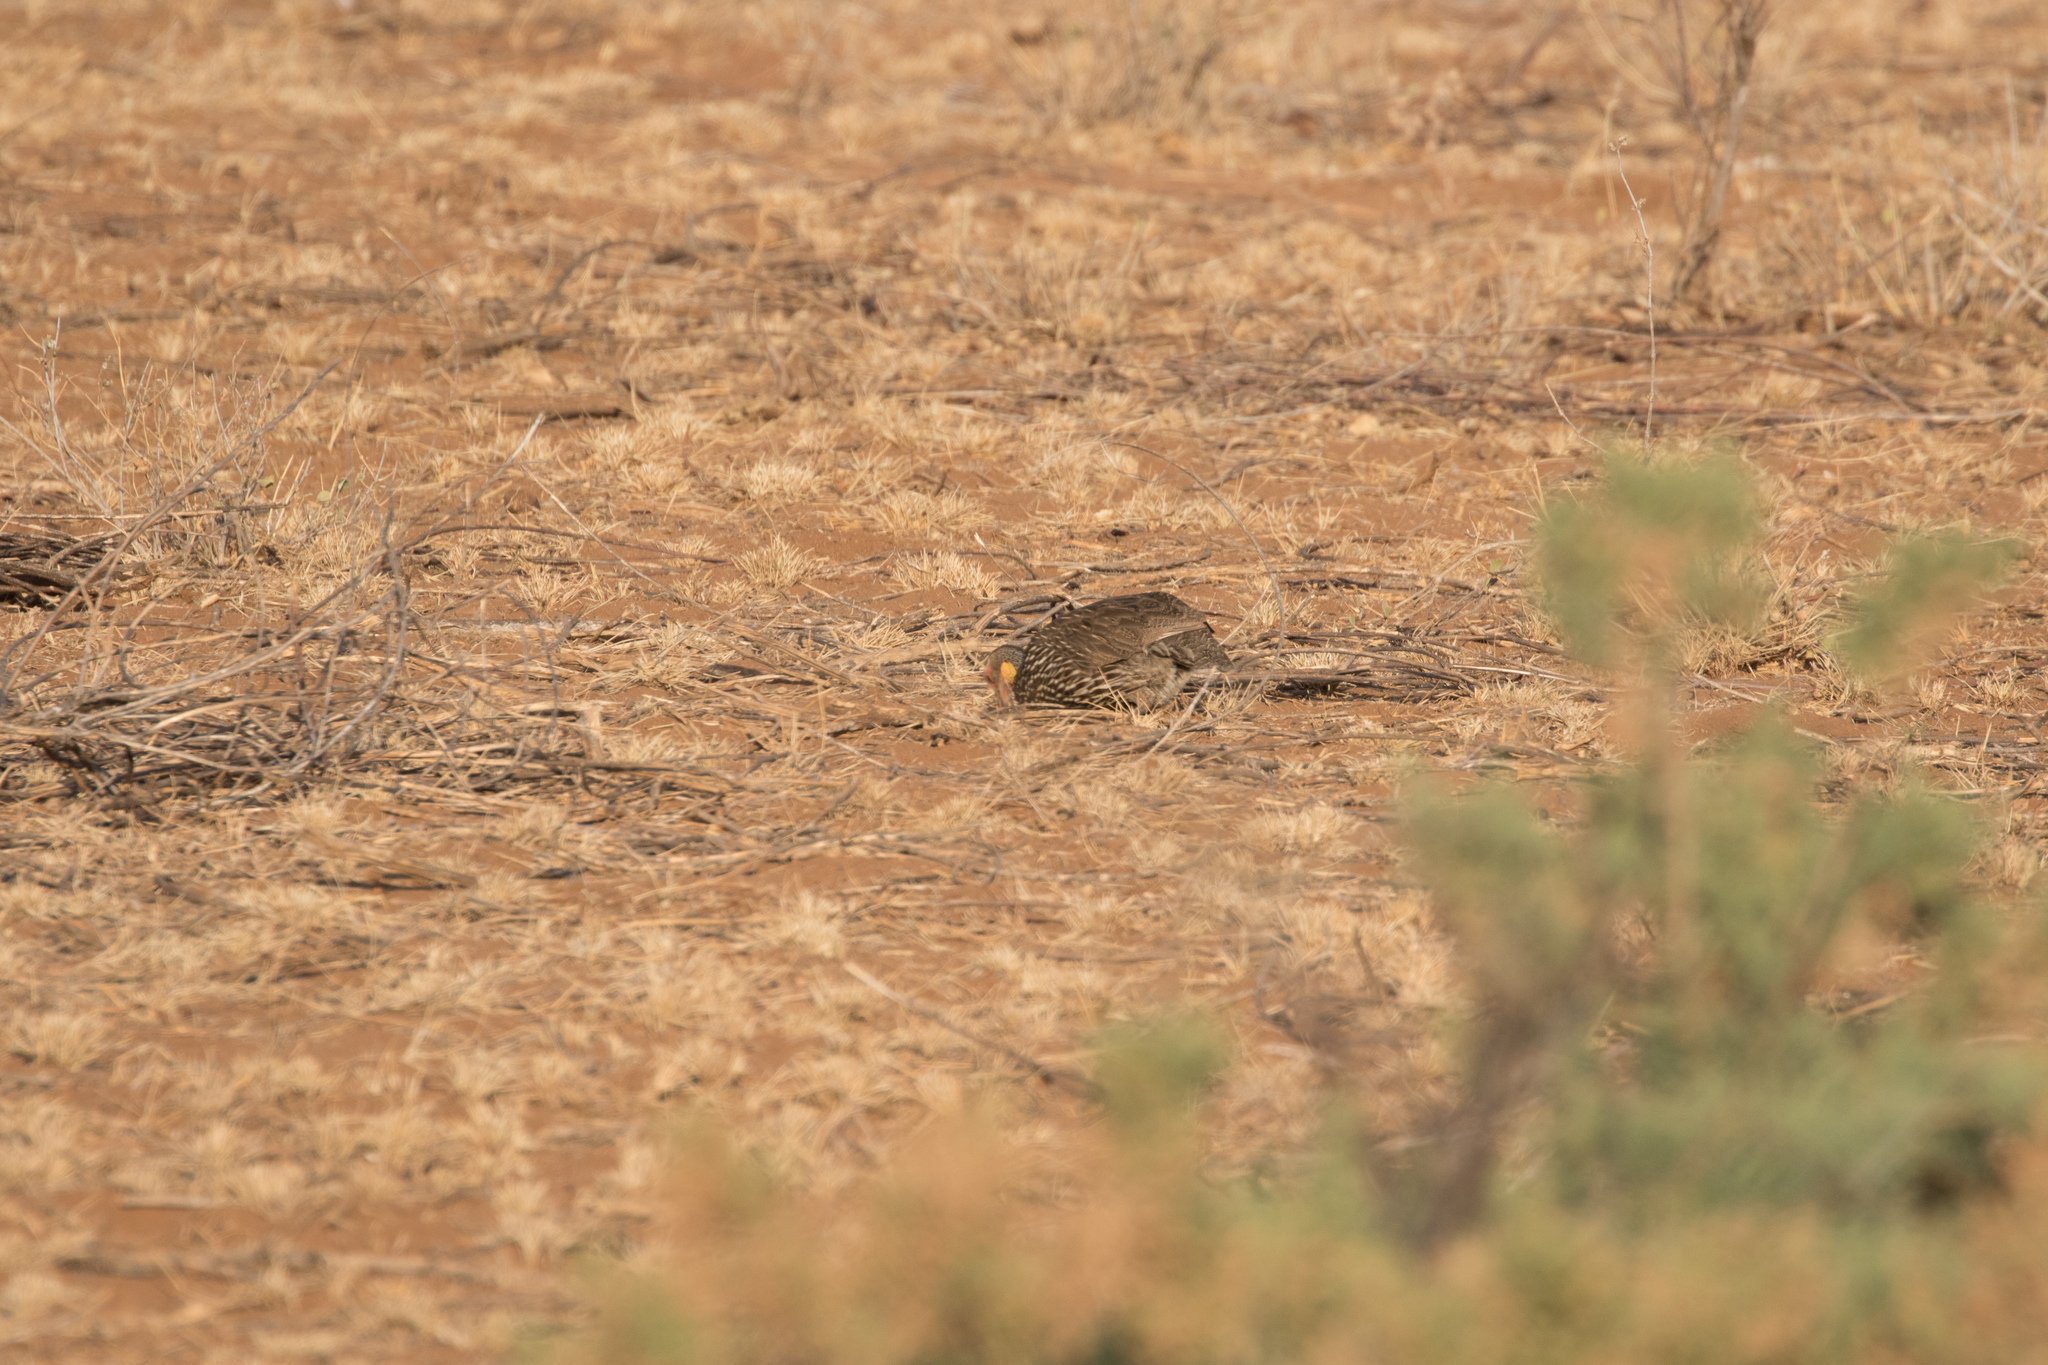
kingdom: Animalia
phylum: Chordata
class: Aves
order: Galliformes
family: Phasianidae
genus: Pternistis
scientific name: Pternistis leucoscepus
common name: Yellow-necked spurfowl
